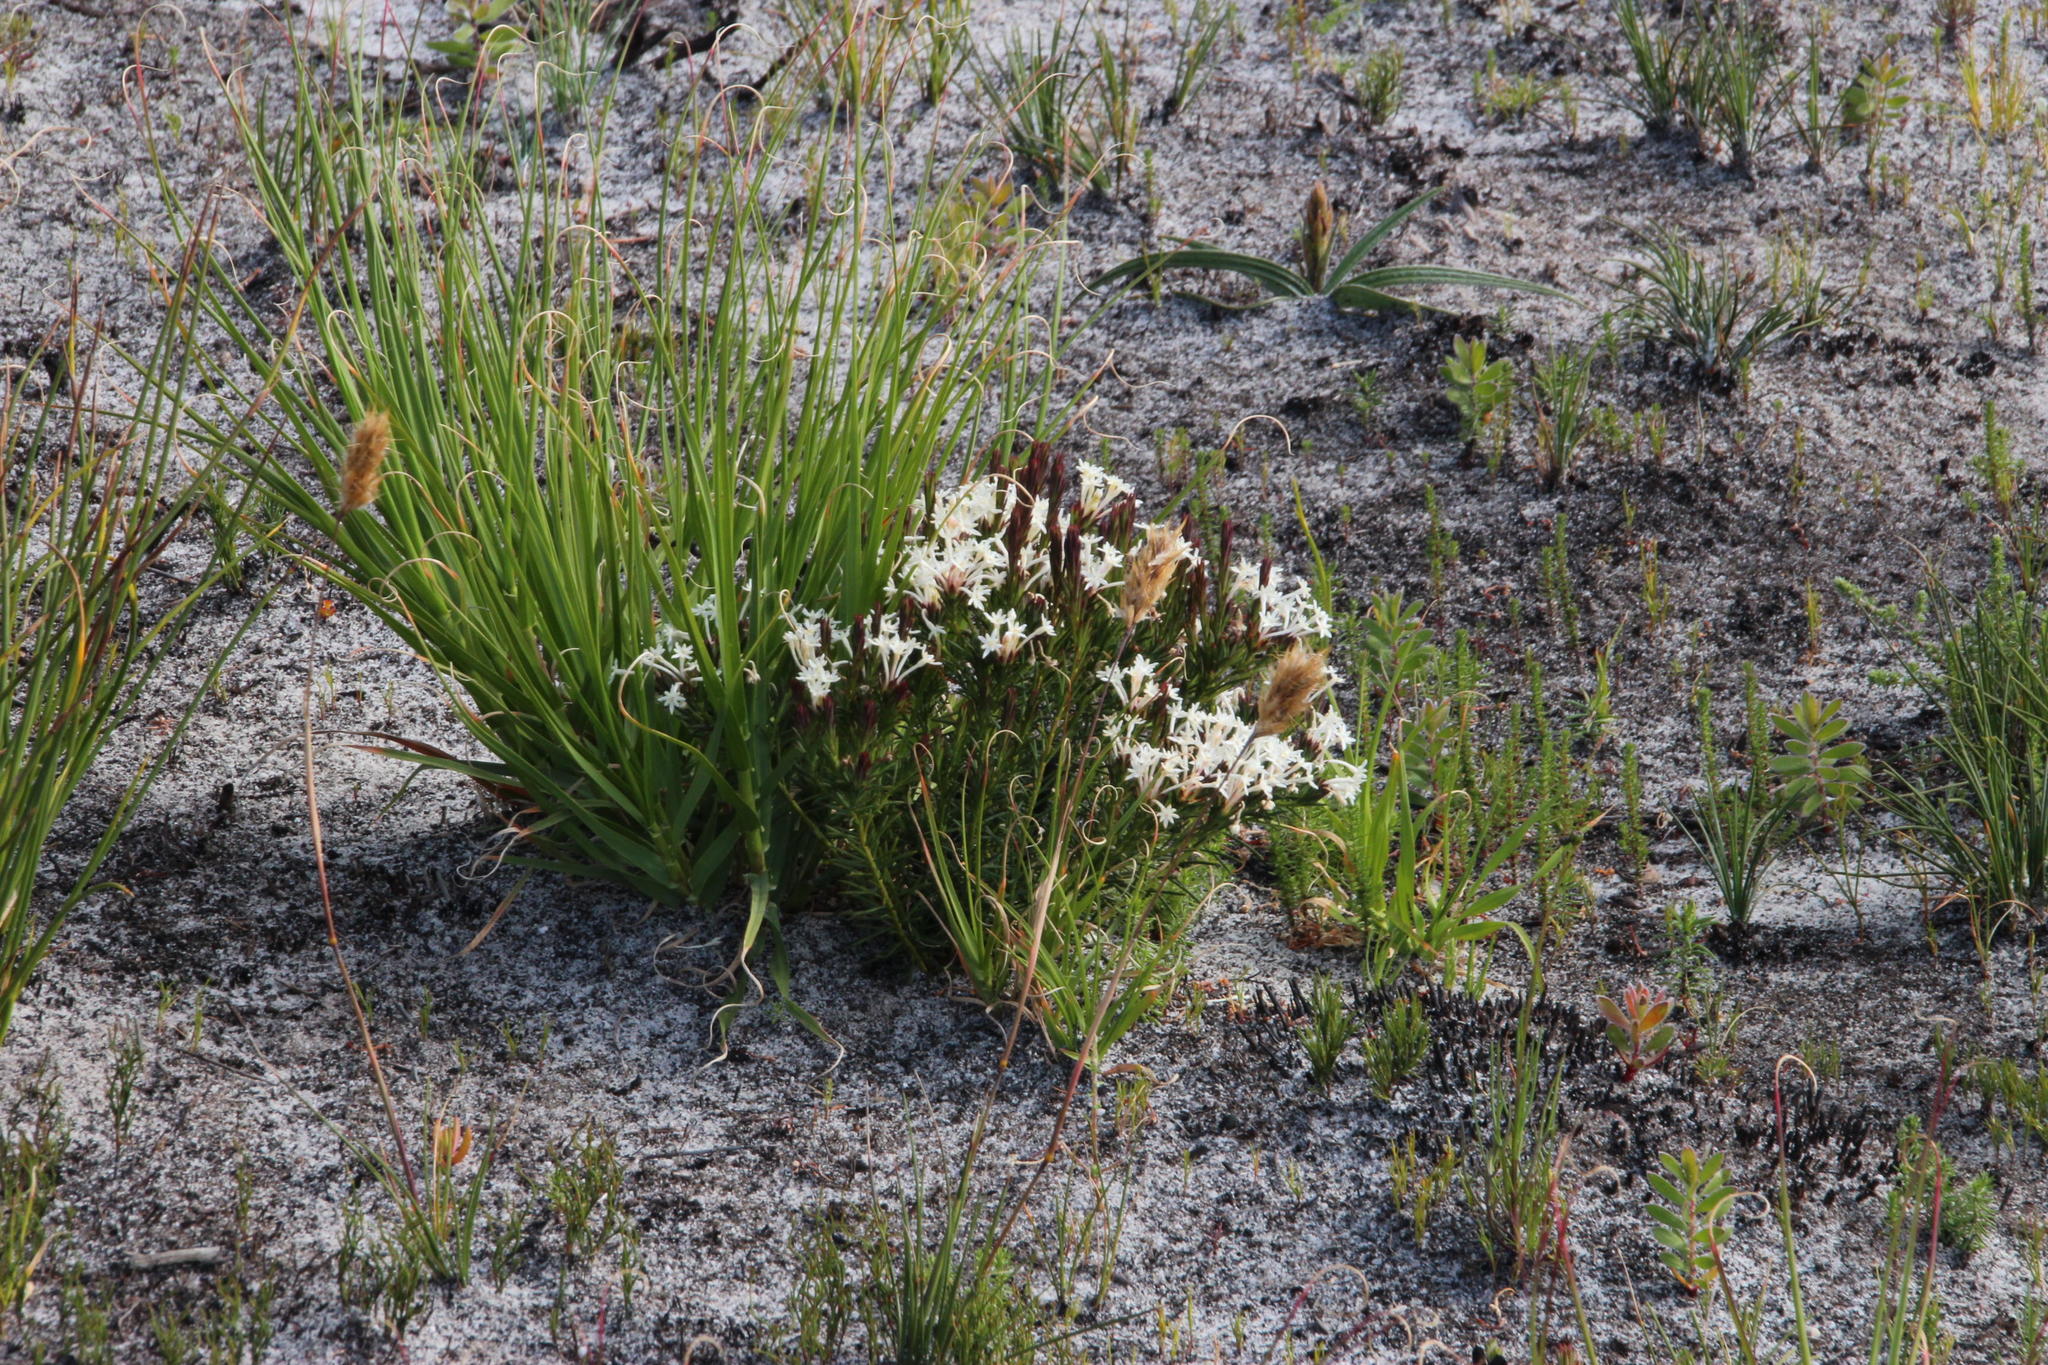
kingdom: Plantae
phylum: Tracheophyta
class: Magnoliopsida
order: Malvales
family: Thymelaeaceae
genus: Gnidia
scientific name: Gnidia pinifolia
